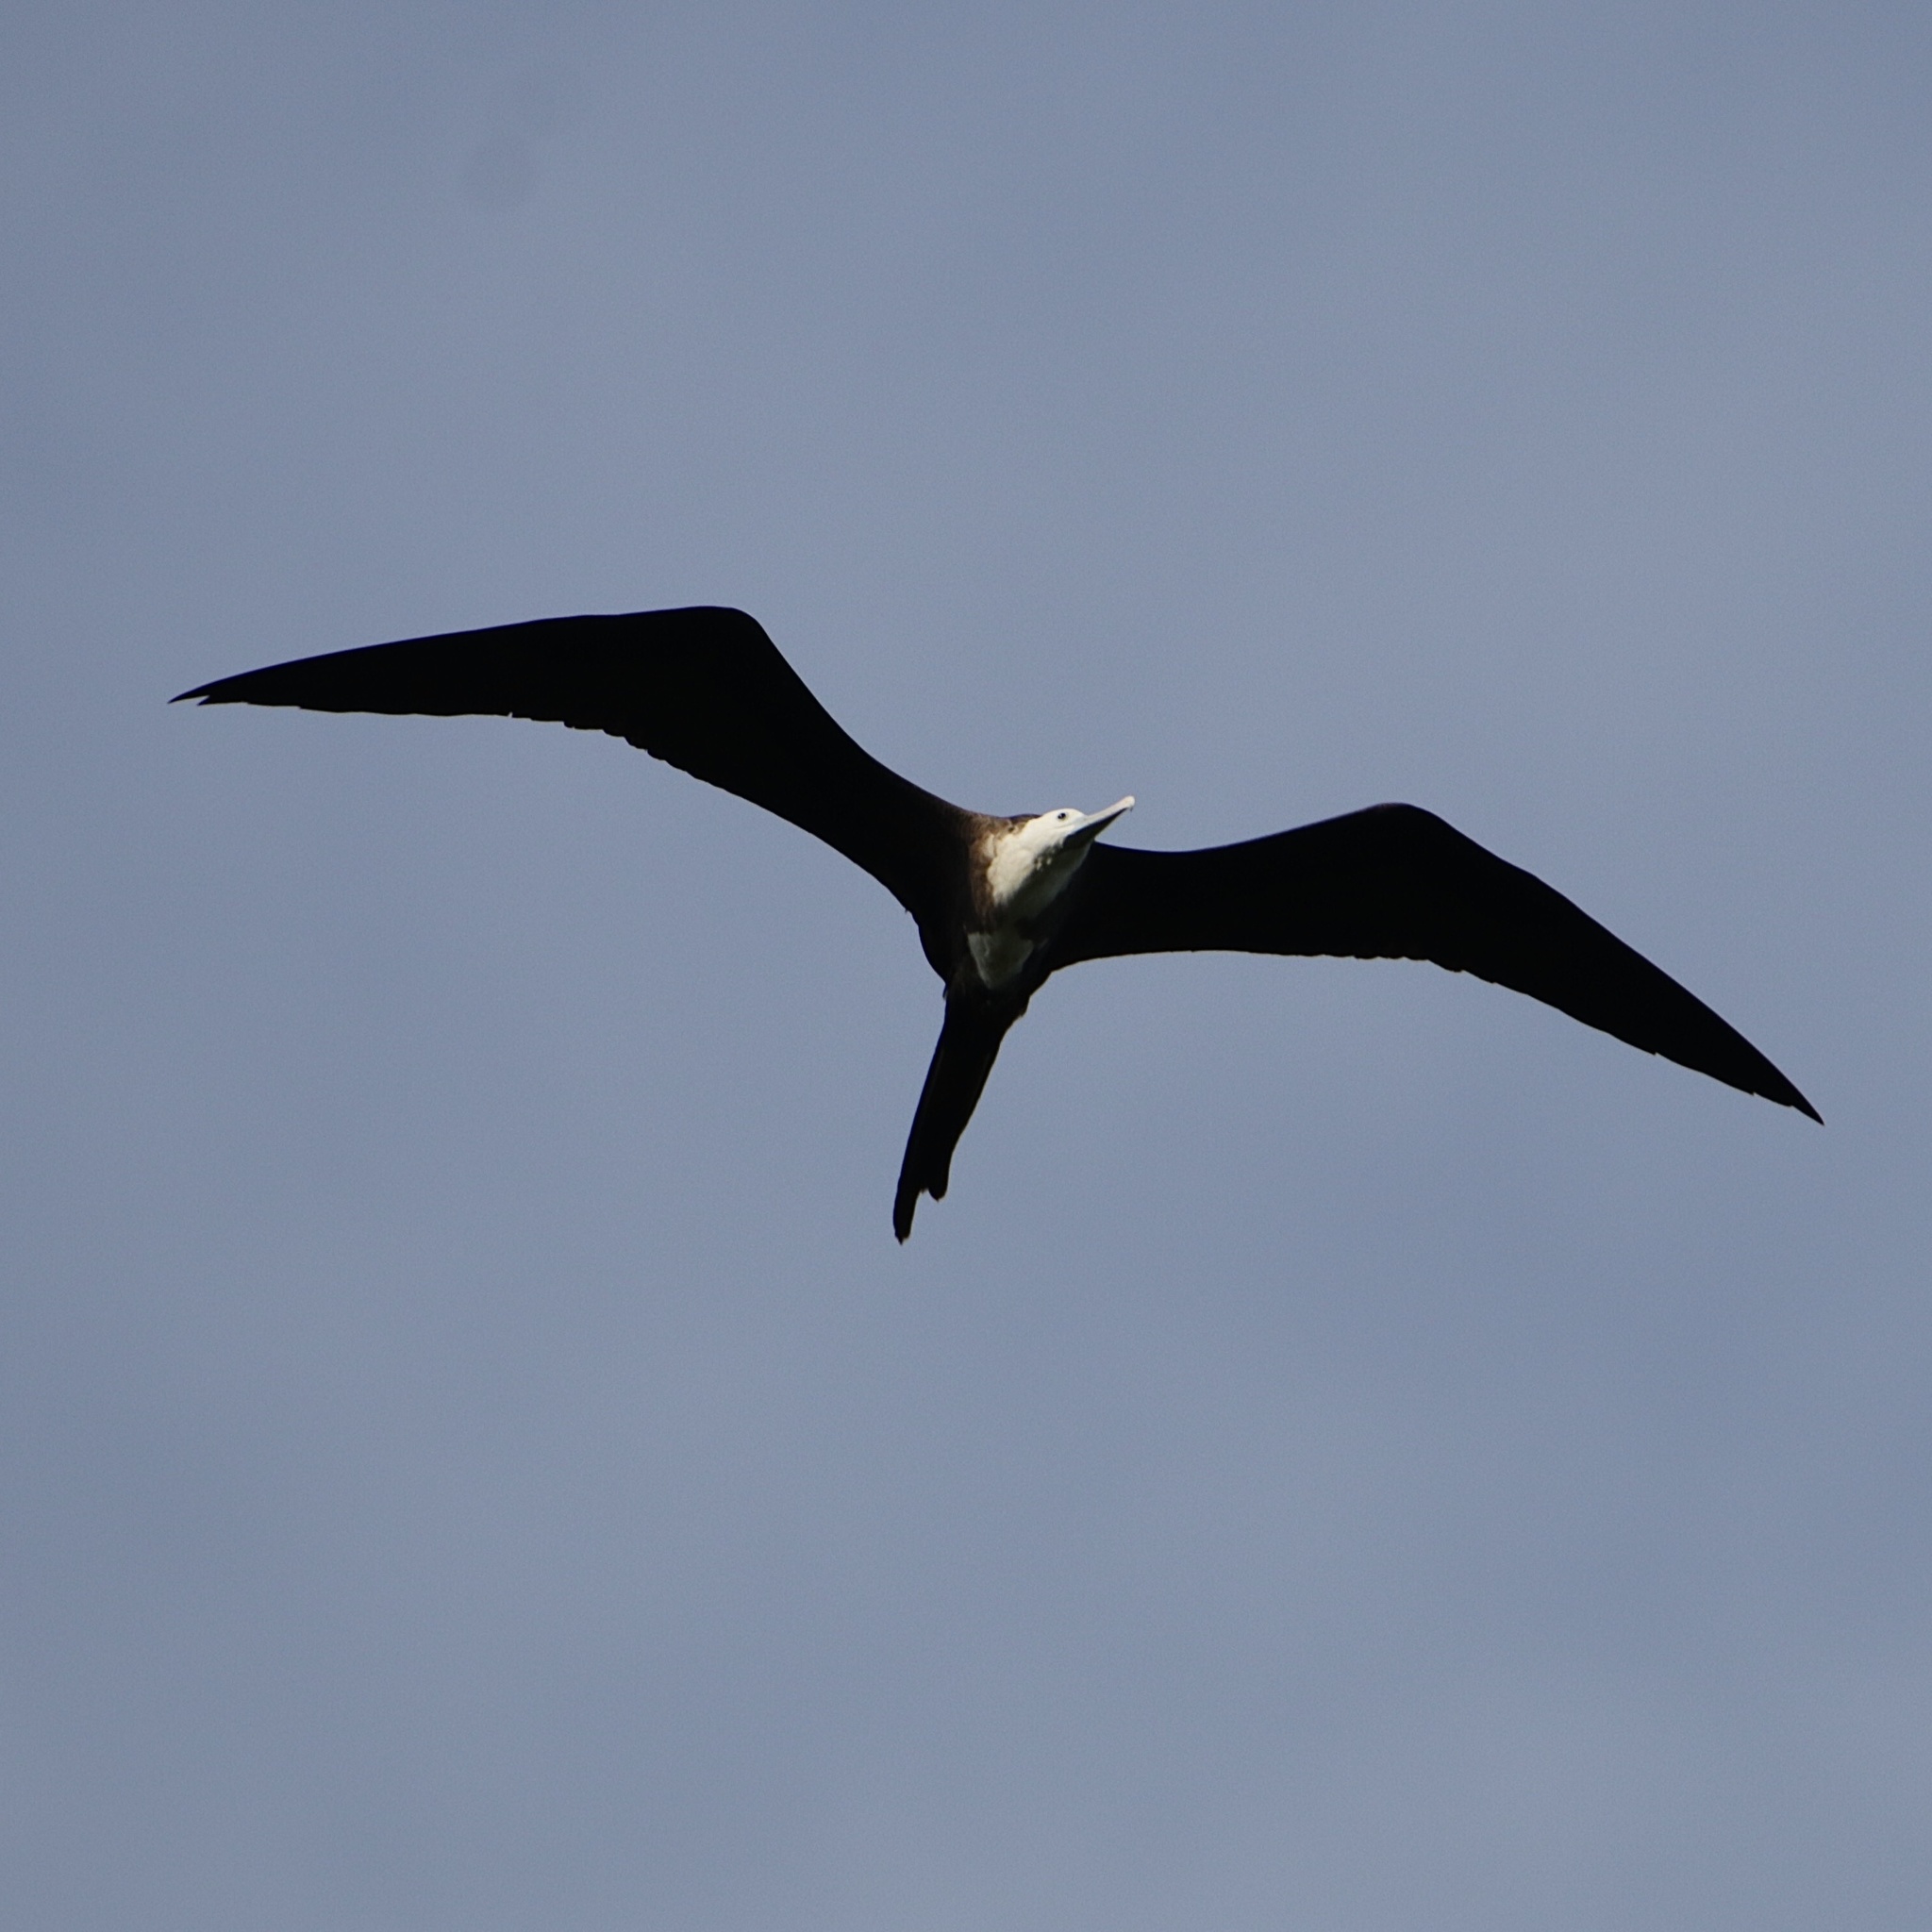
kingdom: Animalia
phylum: Chordata
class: Aves
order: Suliformes
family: Fregatidae
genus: Fregata
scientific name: Fregata magnificens
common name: Magnificent frigatebird
